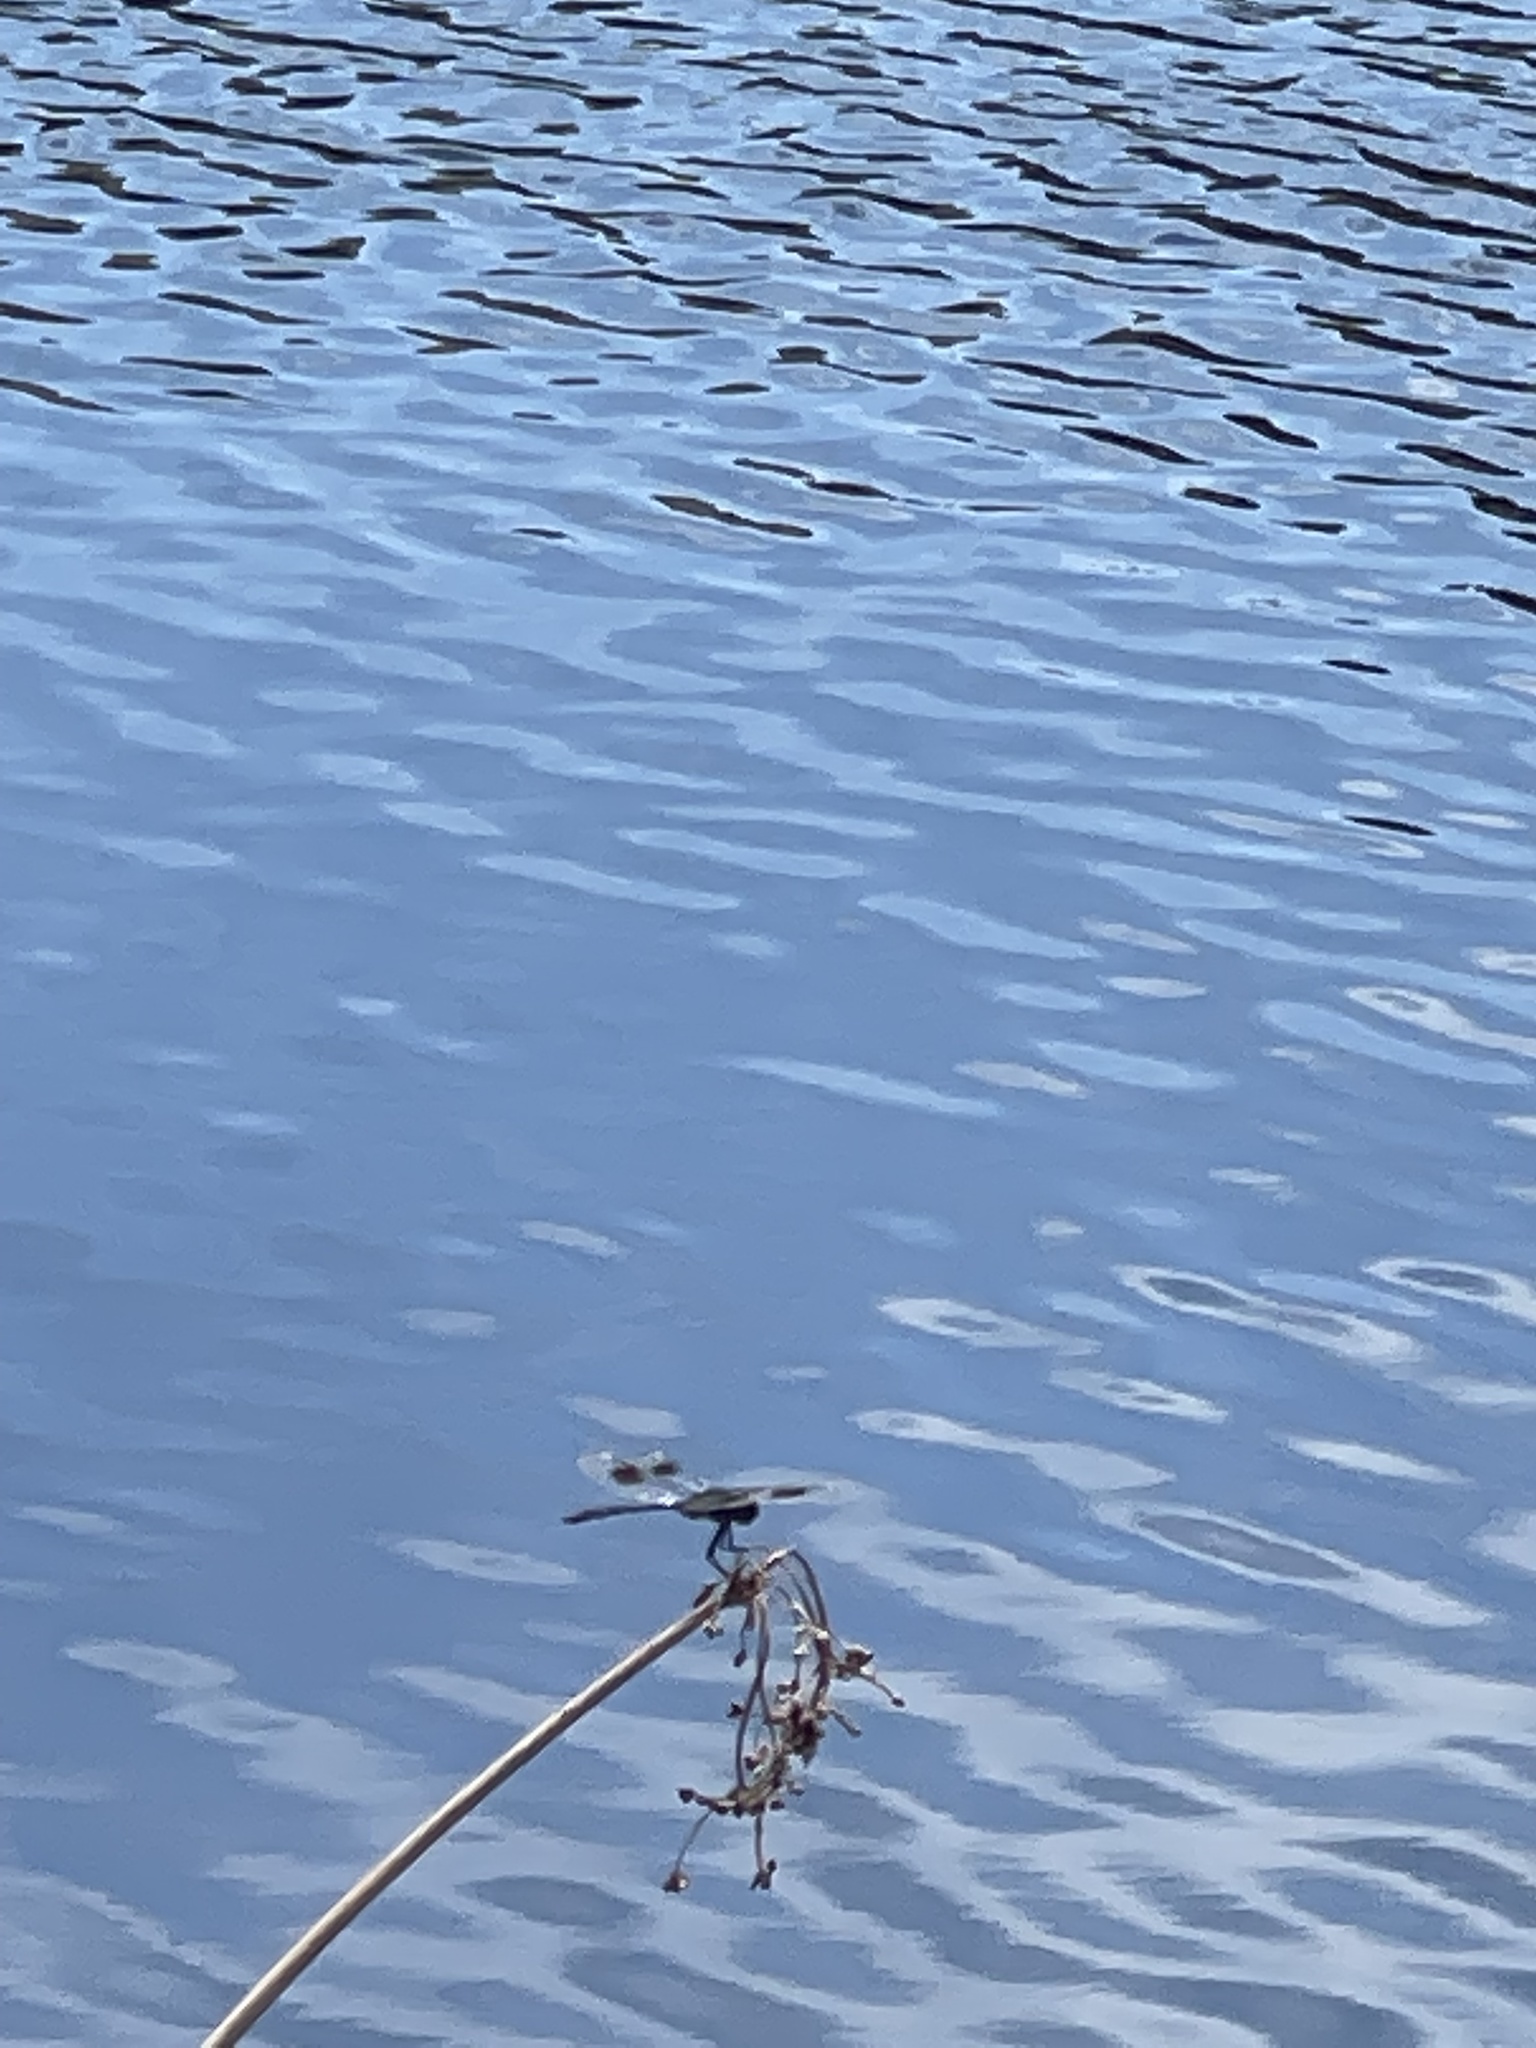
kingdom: Animalia
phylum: Arthropoda
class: Insecta
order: Odonata
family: Libellulidae
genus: Brachymesia
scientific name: Brachymesia gravida
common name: Four-spotted pennant
